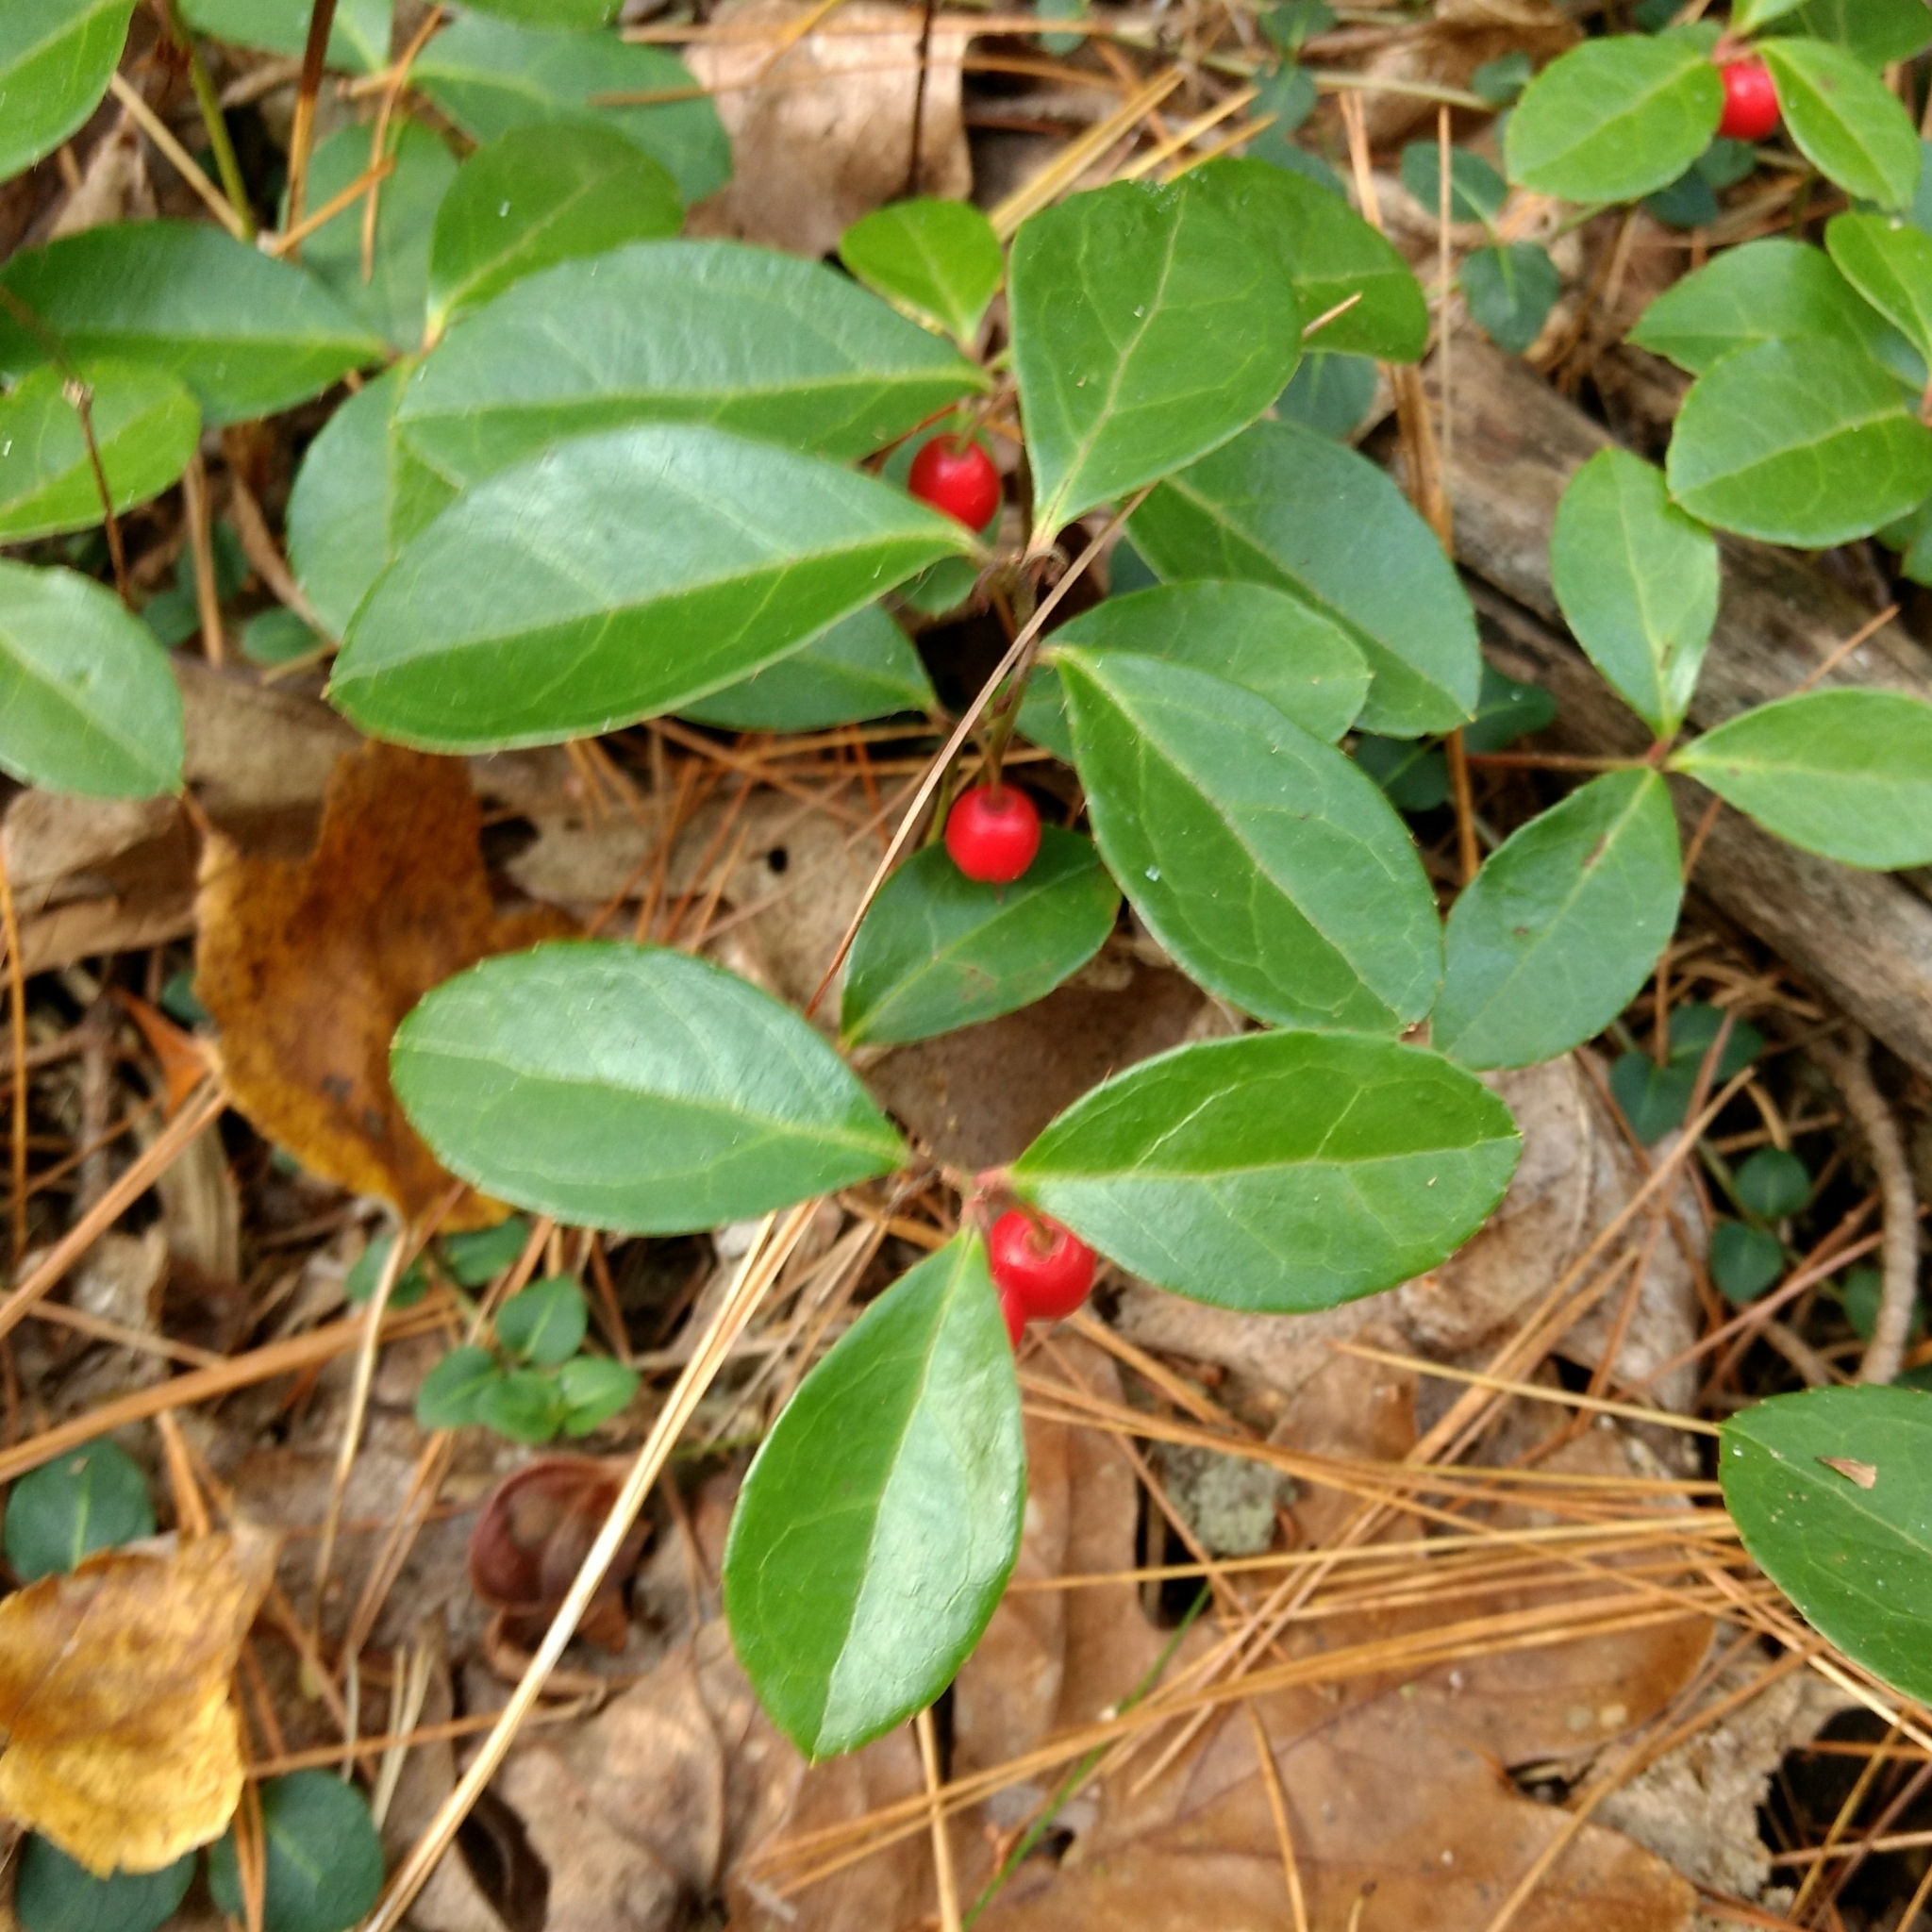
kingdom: Plantae
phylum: Tracheophyta
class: Magnoliopsida
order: Ericales
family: Ericaceae
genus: Gaultheria
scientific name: Gaultheria procumbens
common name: Checkerberry
